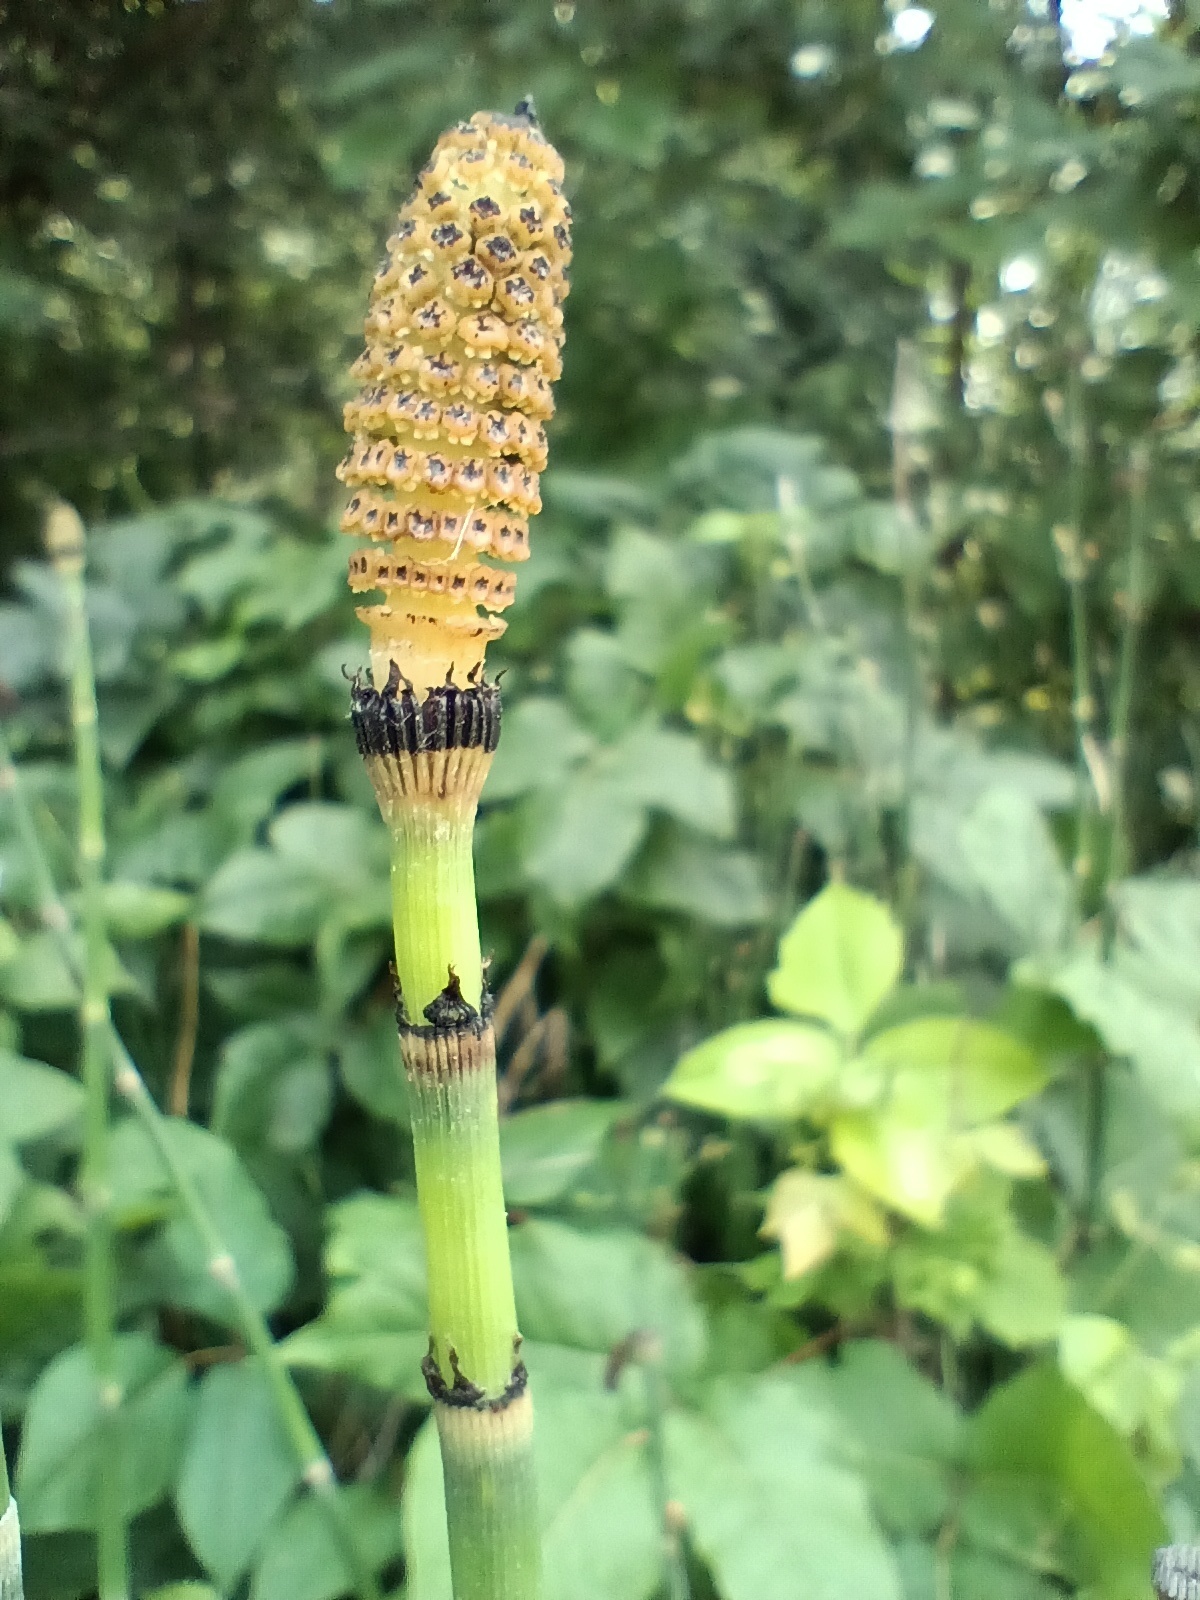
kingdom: Plantae
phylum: Tracheophyta
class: Polypodiopsida
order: Equisetales
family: Equisetaceae
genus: Equisetum
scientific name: Equisetum hyemale
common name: Rough horsetail
